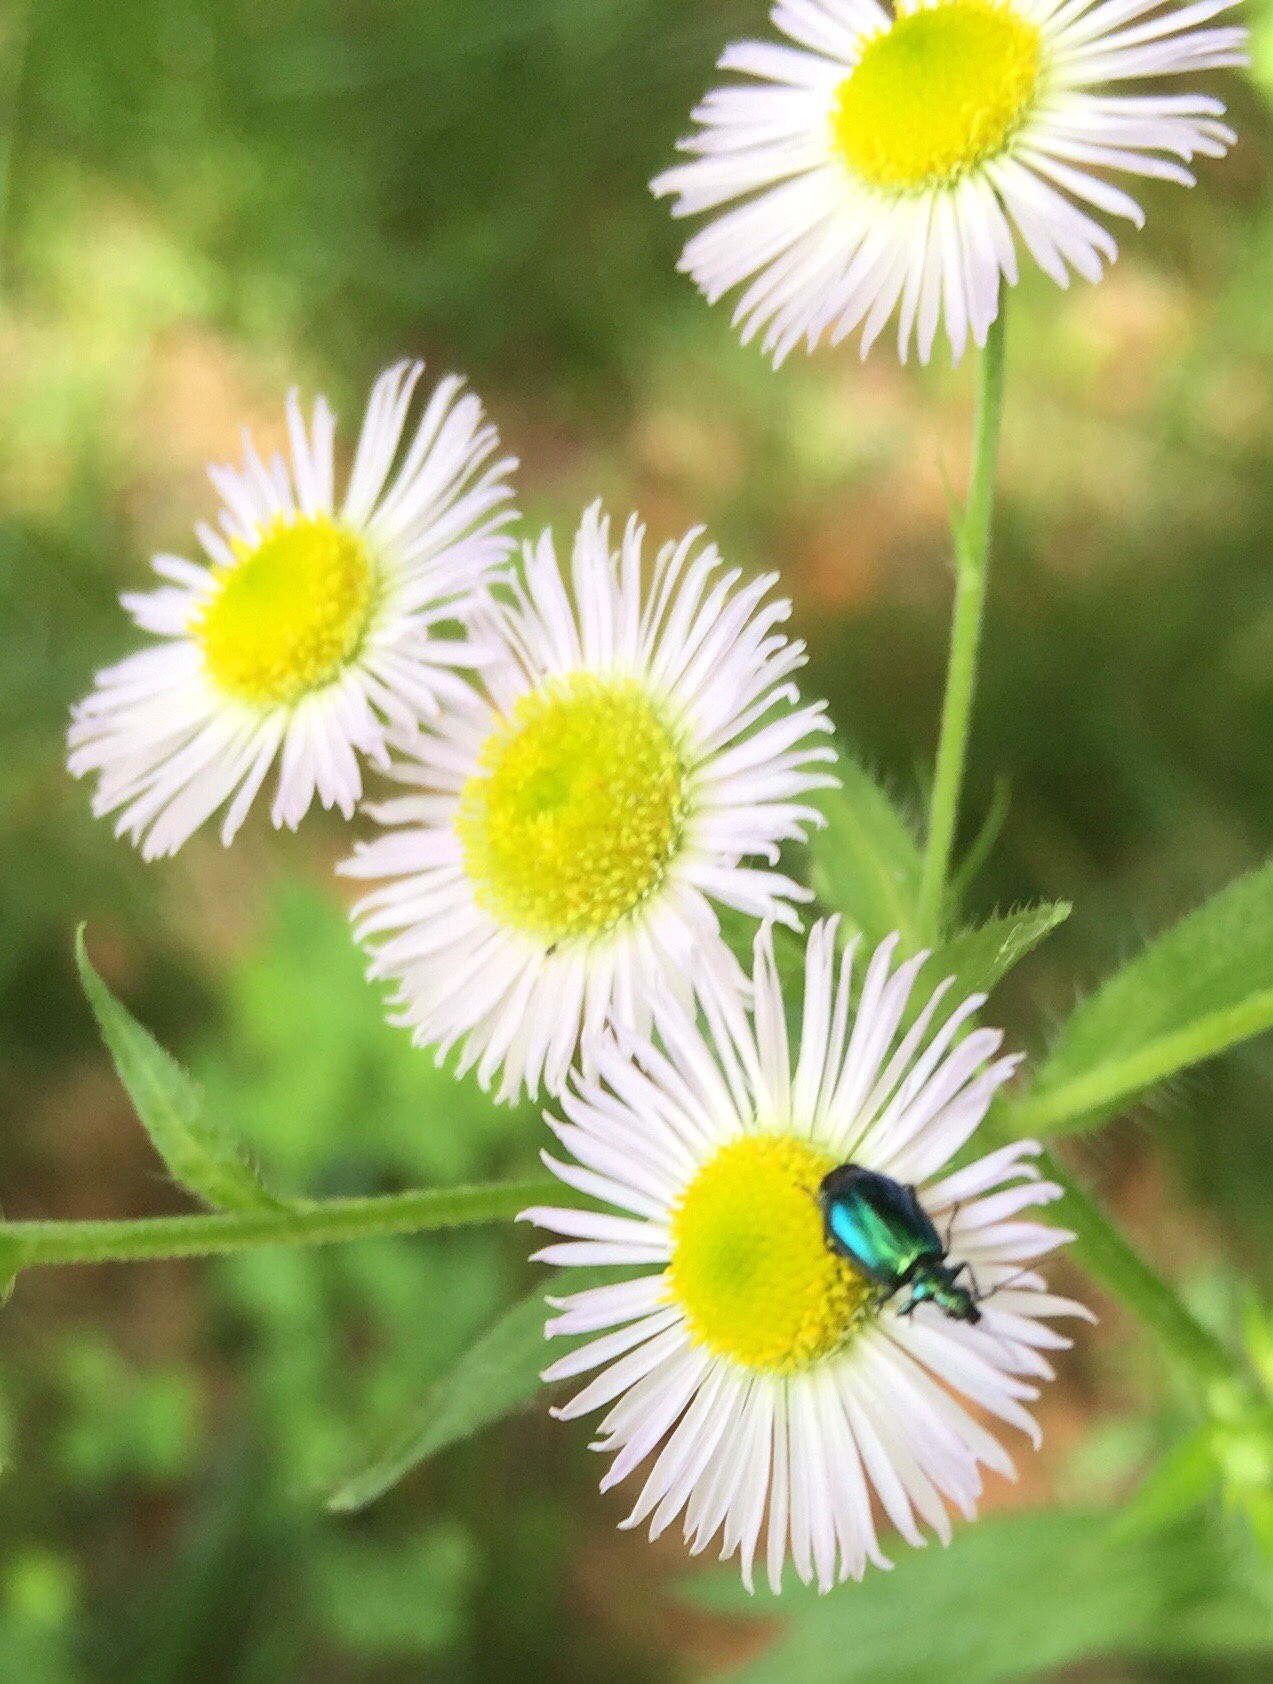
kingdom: Animalia
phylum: Arthropoda
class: Insecta
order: Coleoptera
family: Carabidae
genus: Lebia
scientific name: Lebia viridis
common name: Flower lebia beetle
